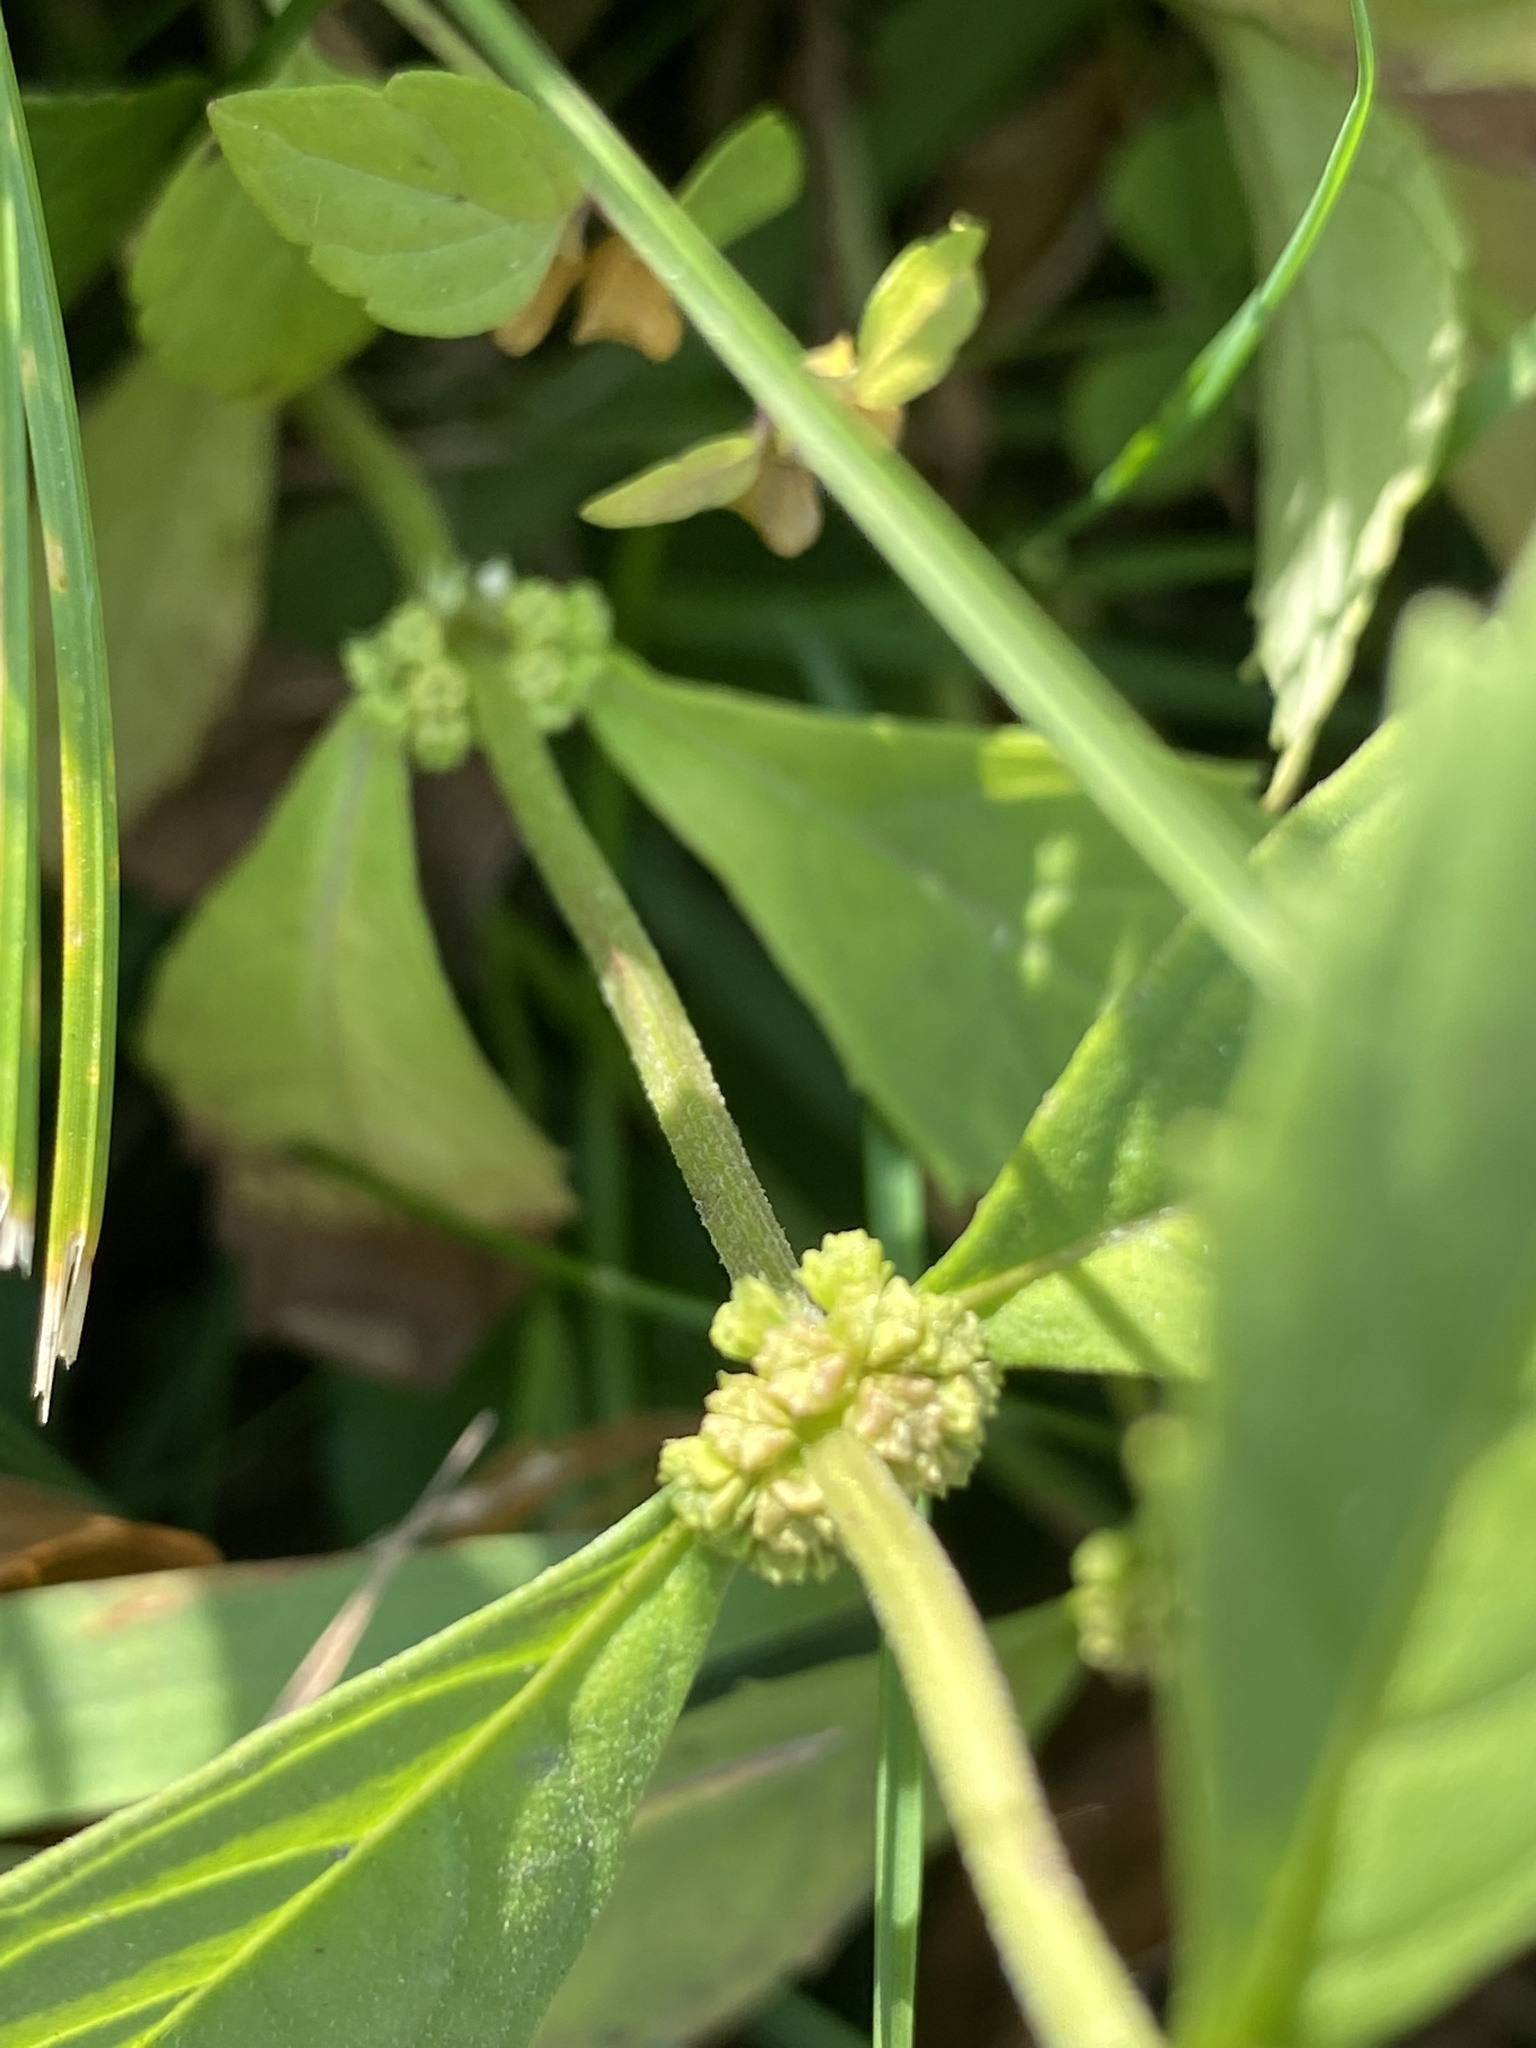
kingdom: Plantae
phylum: Tracheophyta
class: Magnoliopsida
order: Lamiales
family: Lamiaceae
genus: Lycopus
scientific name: Lycopus virginicus
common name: Bugleweed
